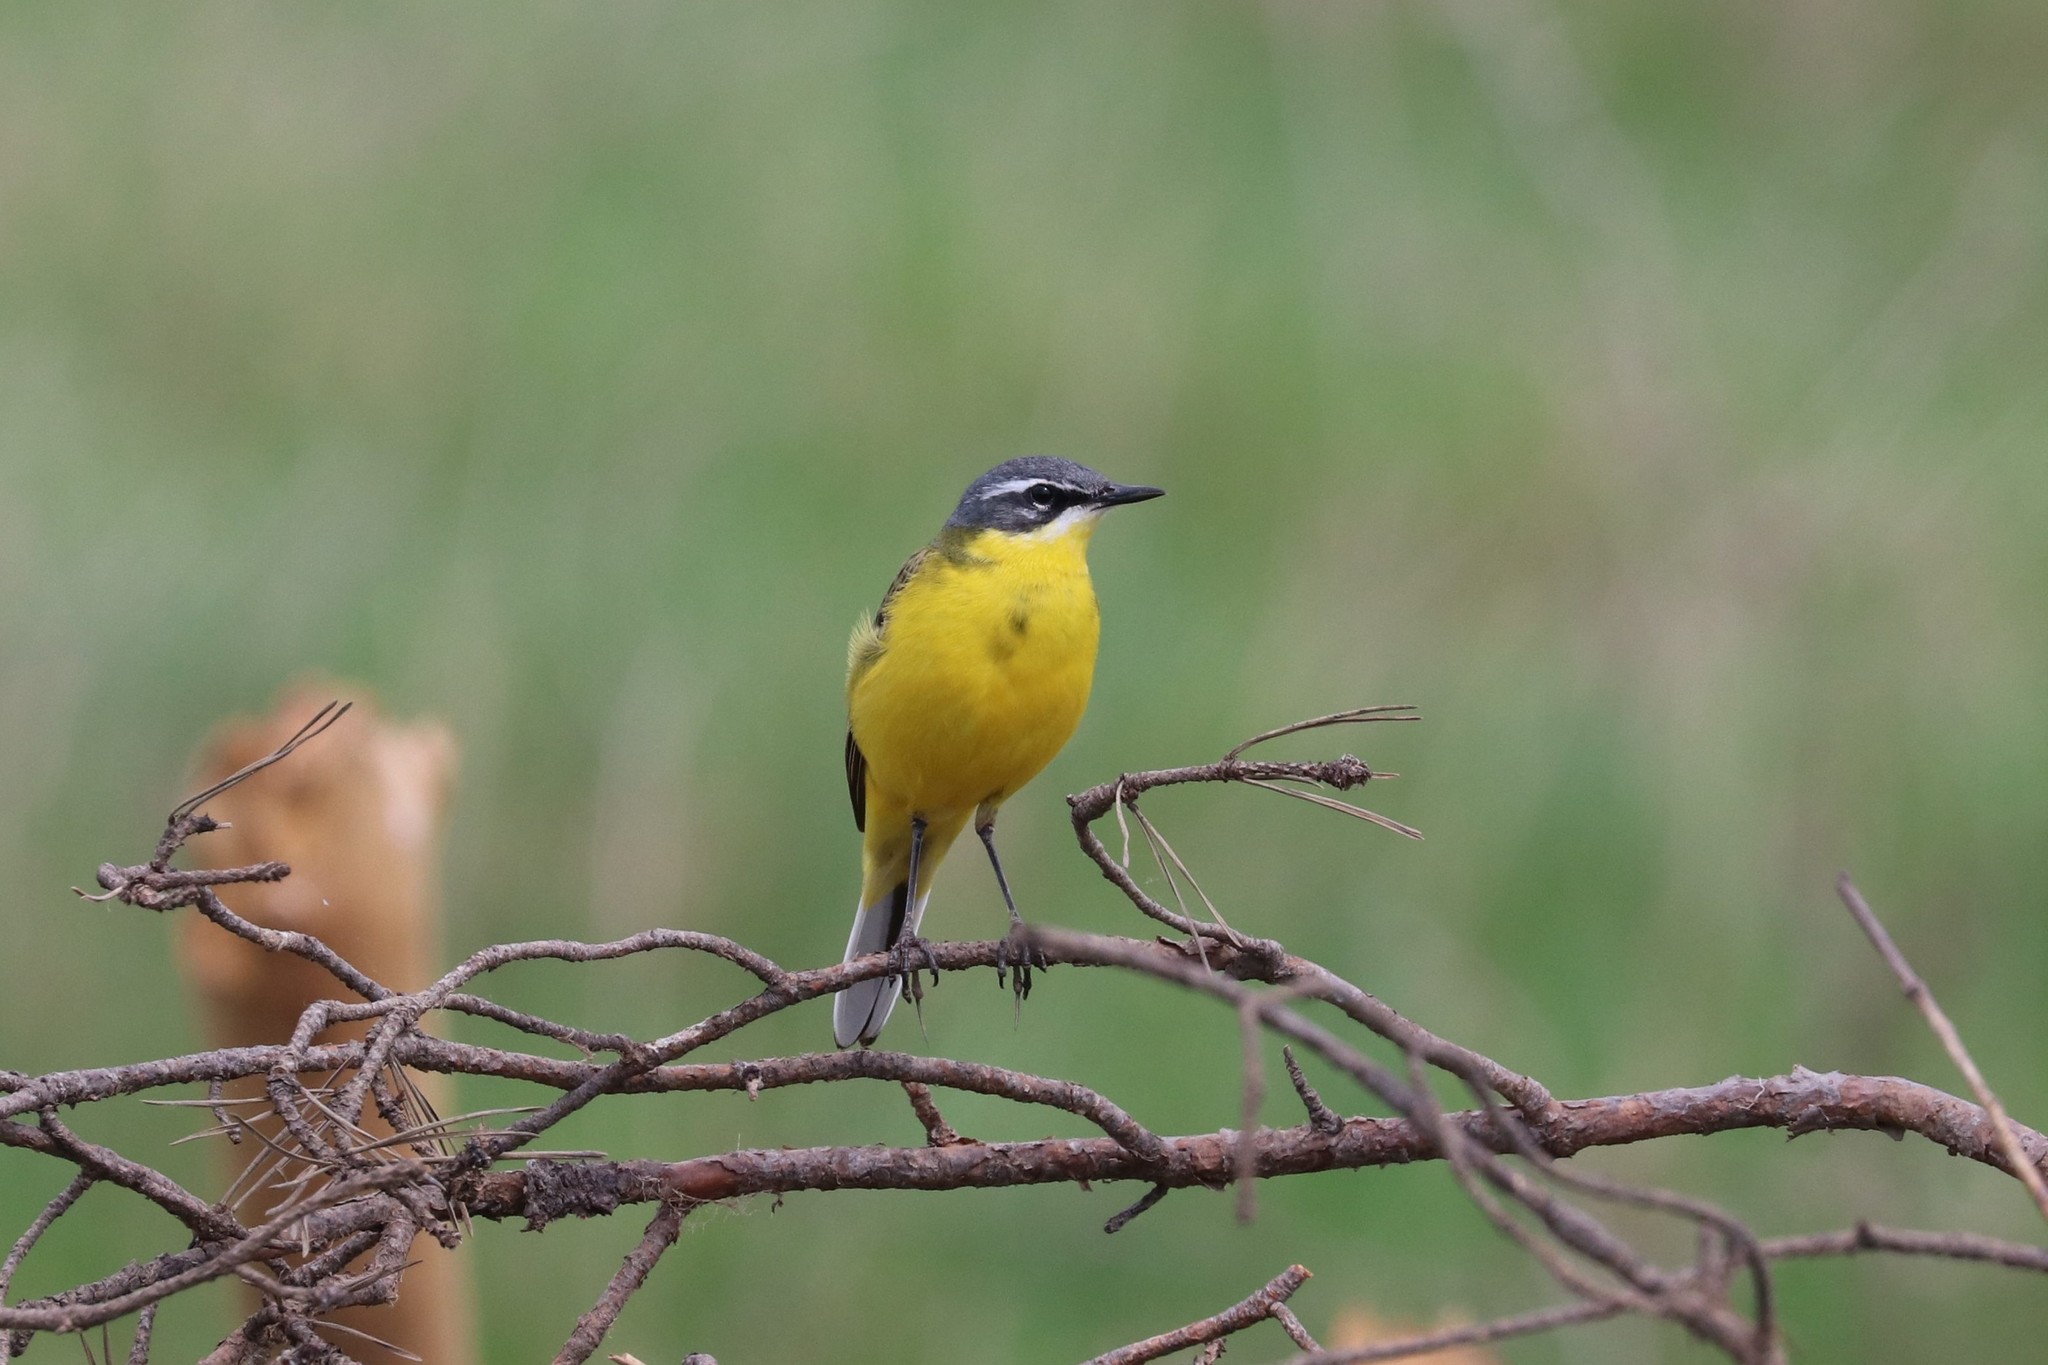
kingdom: Animalia
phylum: Chordata
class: Aves
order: Passeriformes
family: Motacillidae
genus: Motacilla
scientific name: Motacilla flava
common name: Western yellow wagtail
